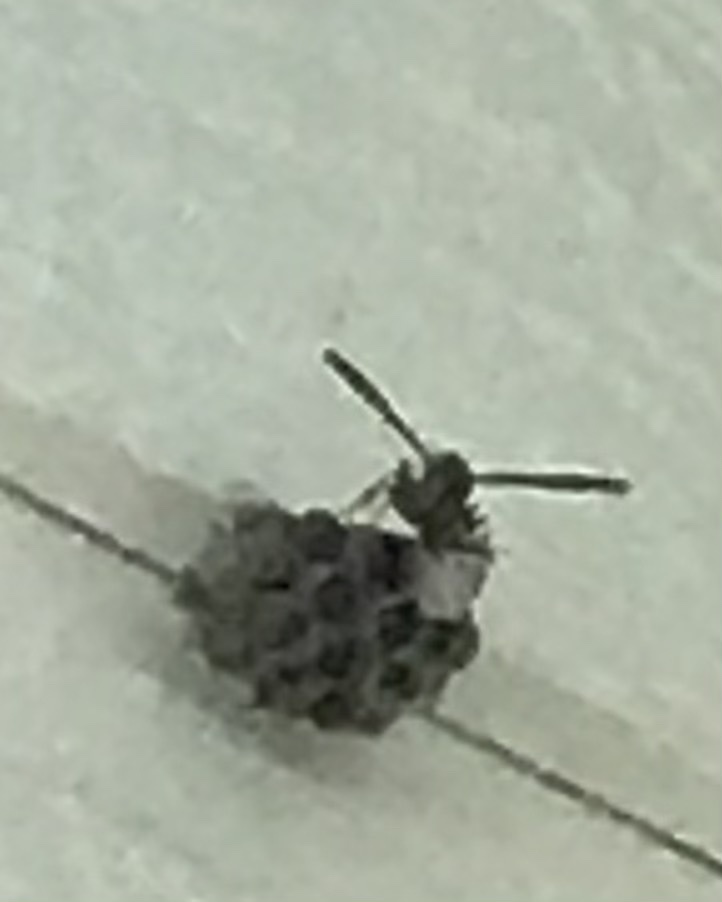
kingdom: Animalia
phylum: Arthropoda
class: Insecta
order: Hymenoptera
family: Eumenidae
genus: Polistes
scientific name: Polistes
